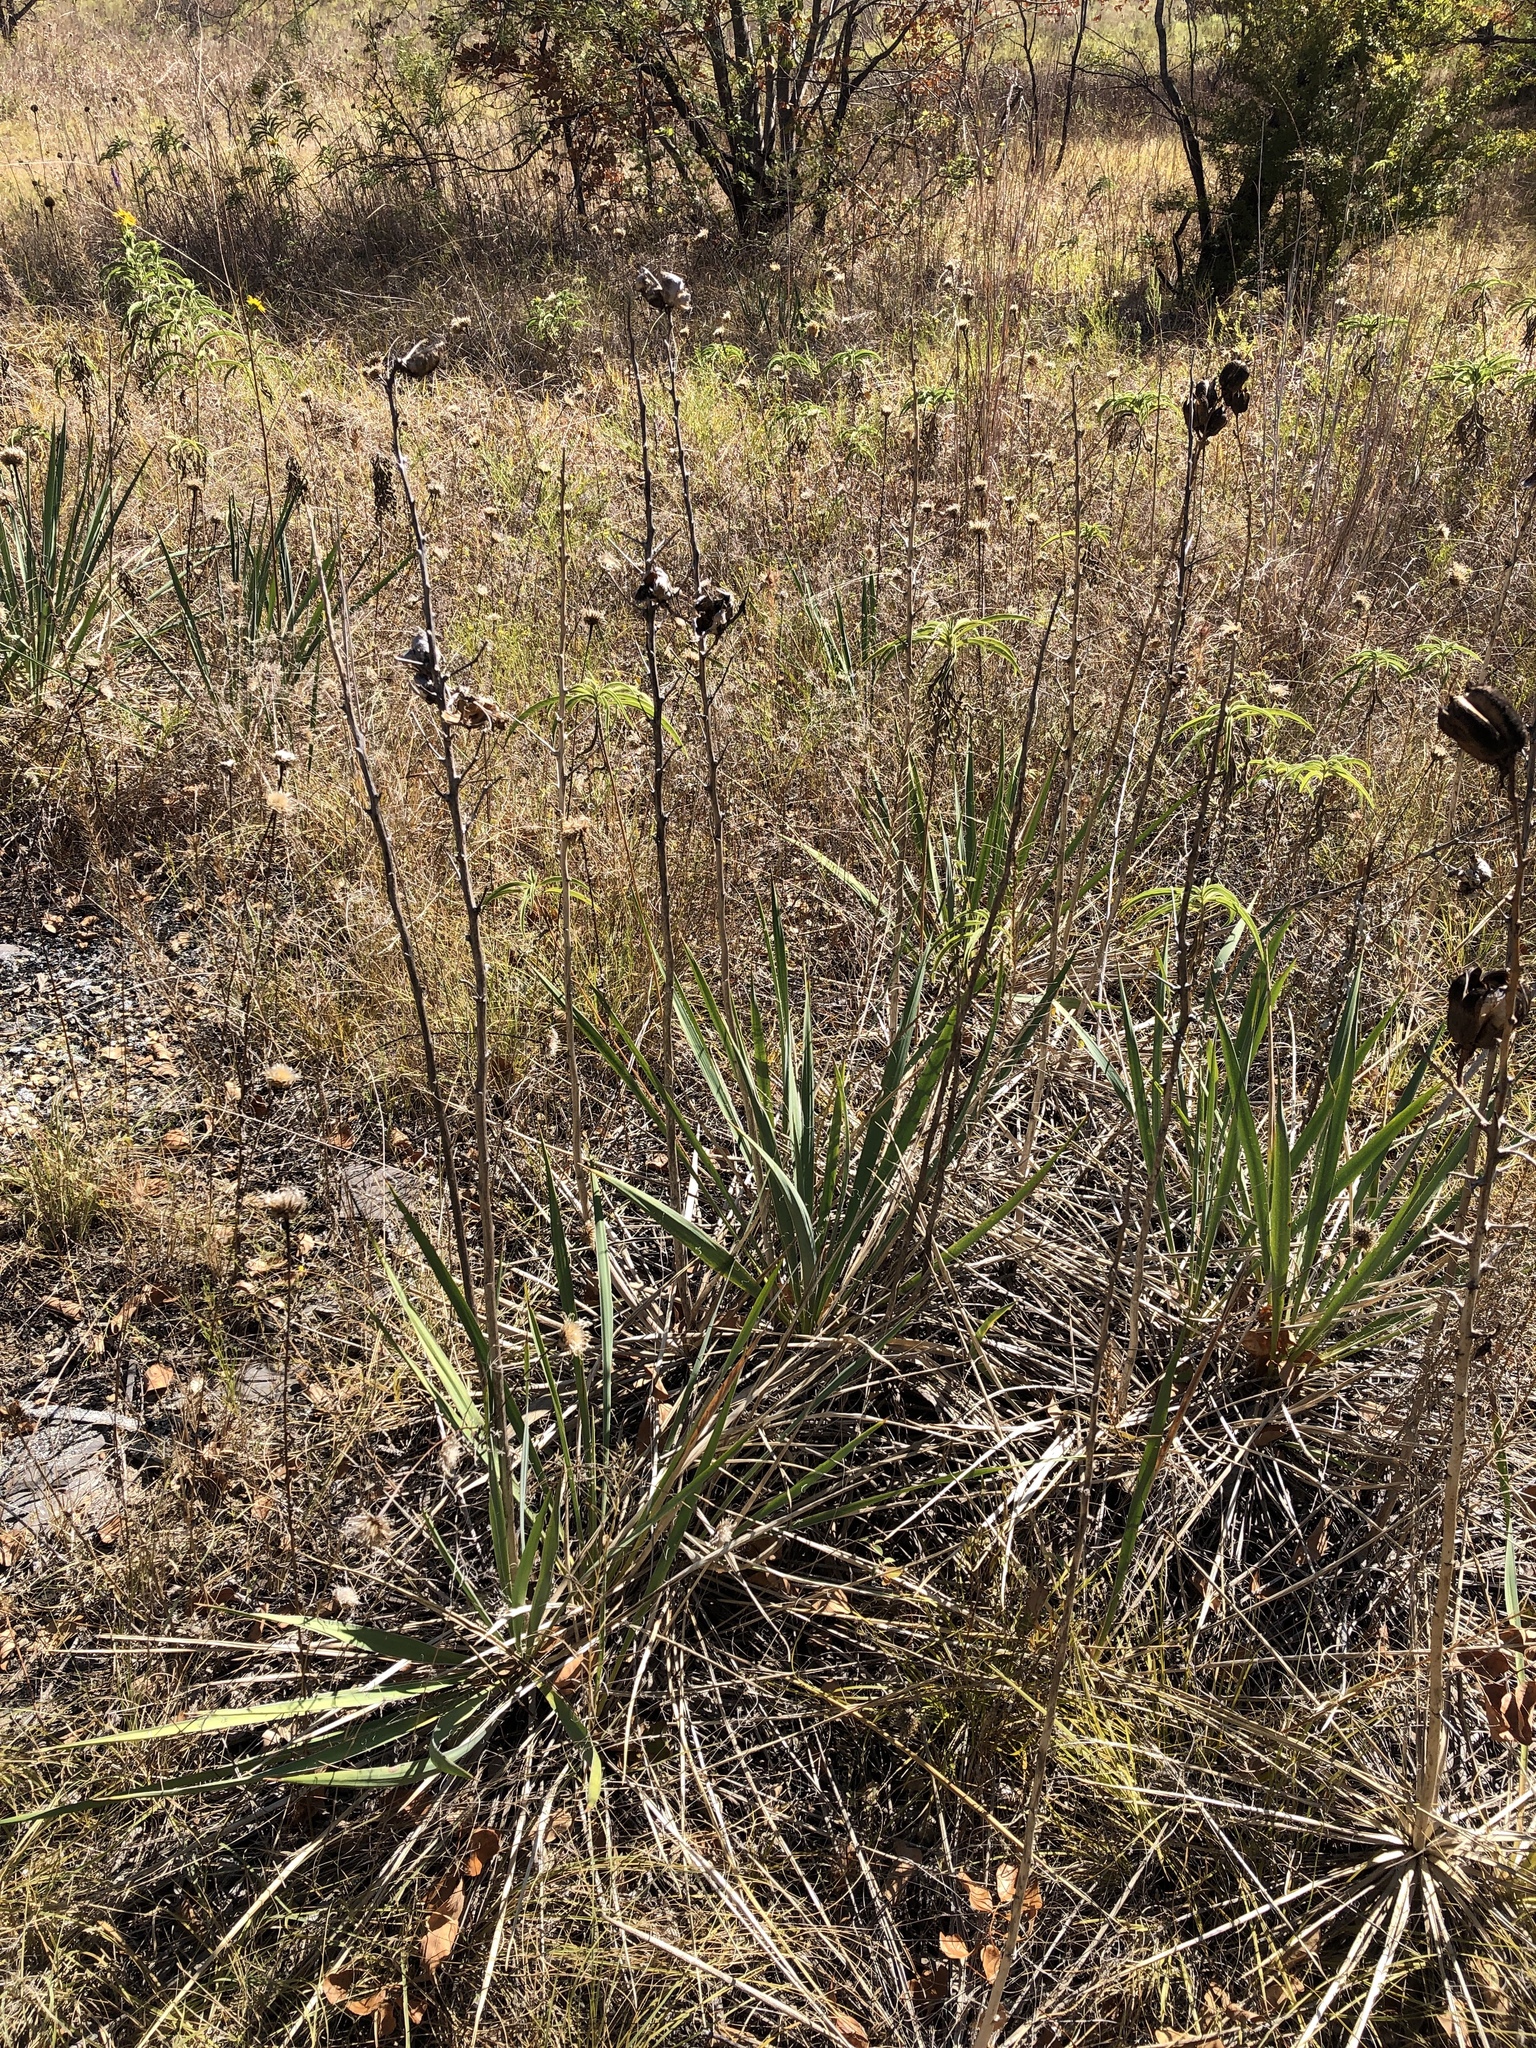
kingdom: Plantae
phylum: Tracheophyta
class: Liliopsida
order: Asparagales
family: Asparagaceae
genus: Yucca
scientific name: Yucca arkansana
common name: Arkansas yucca
